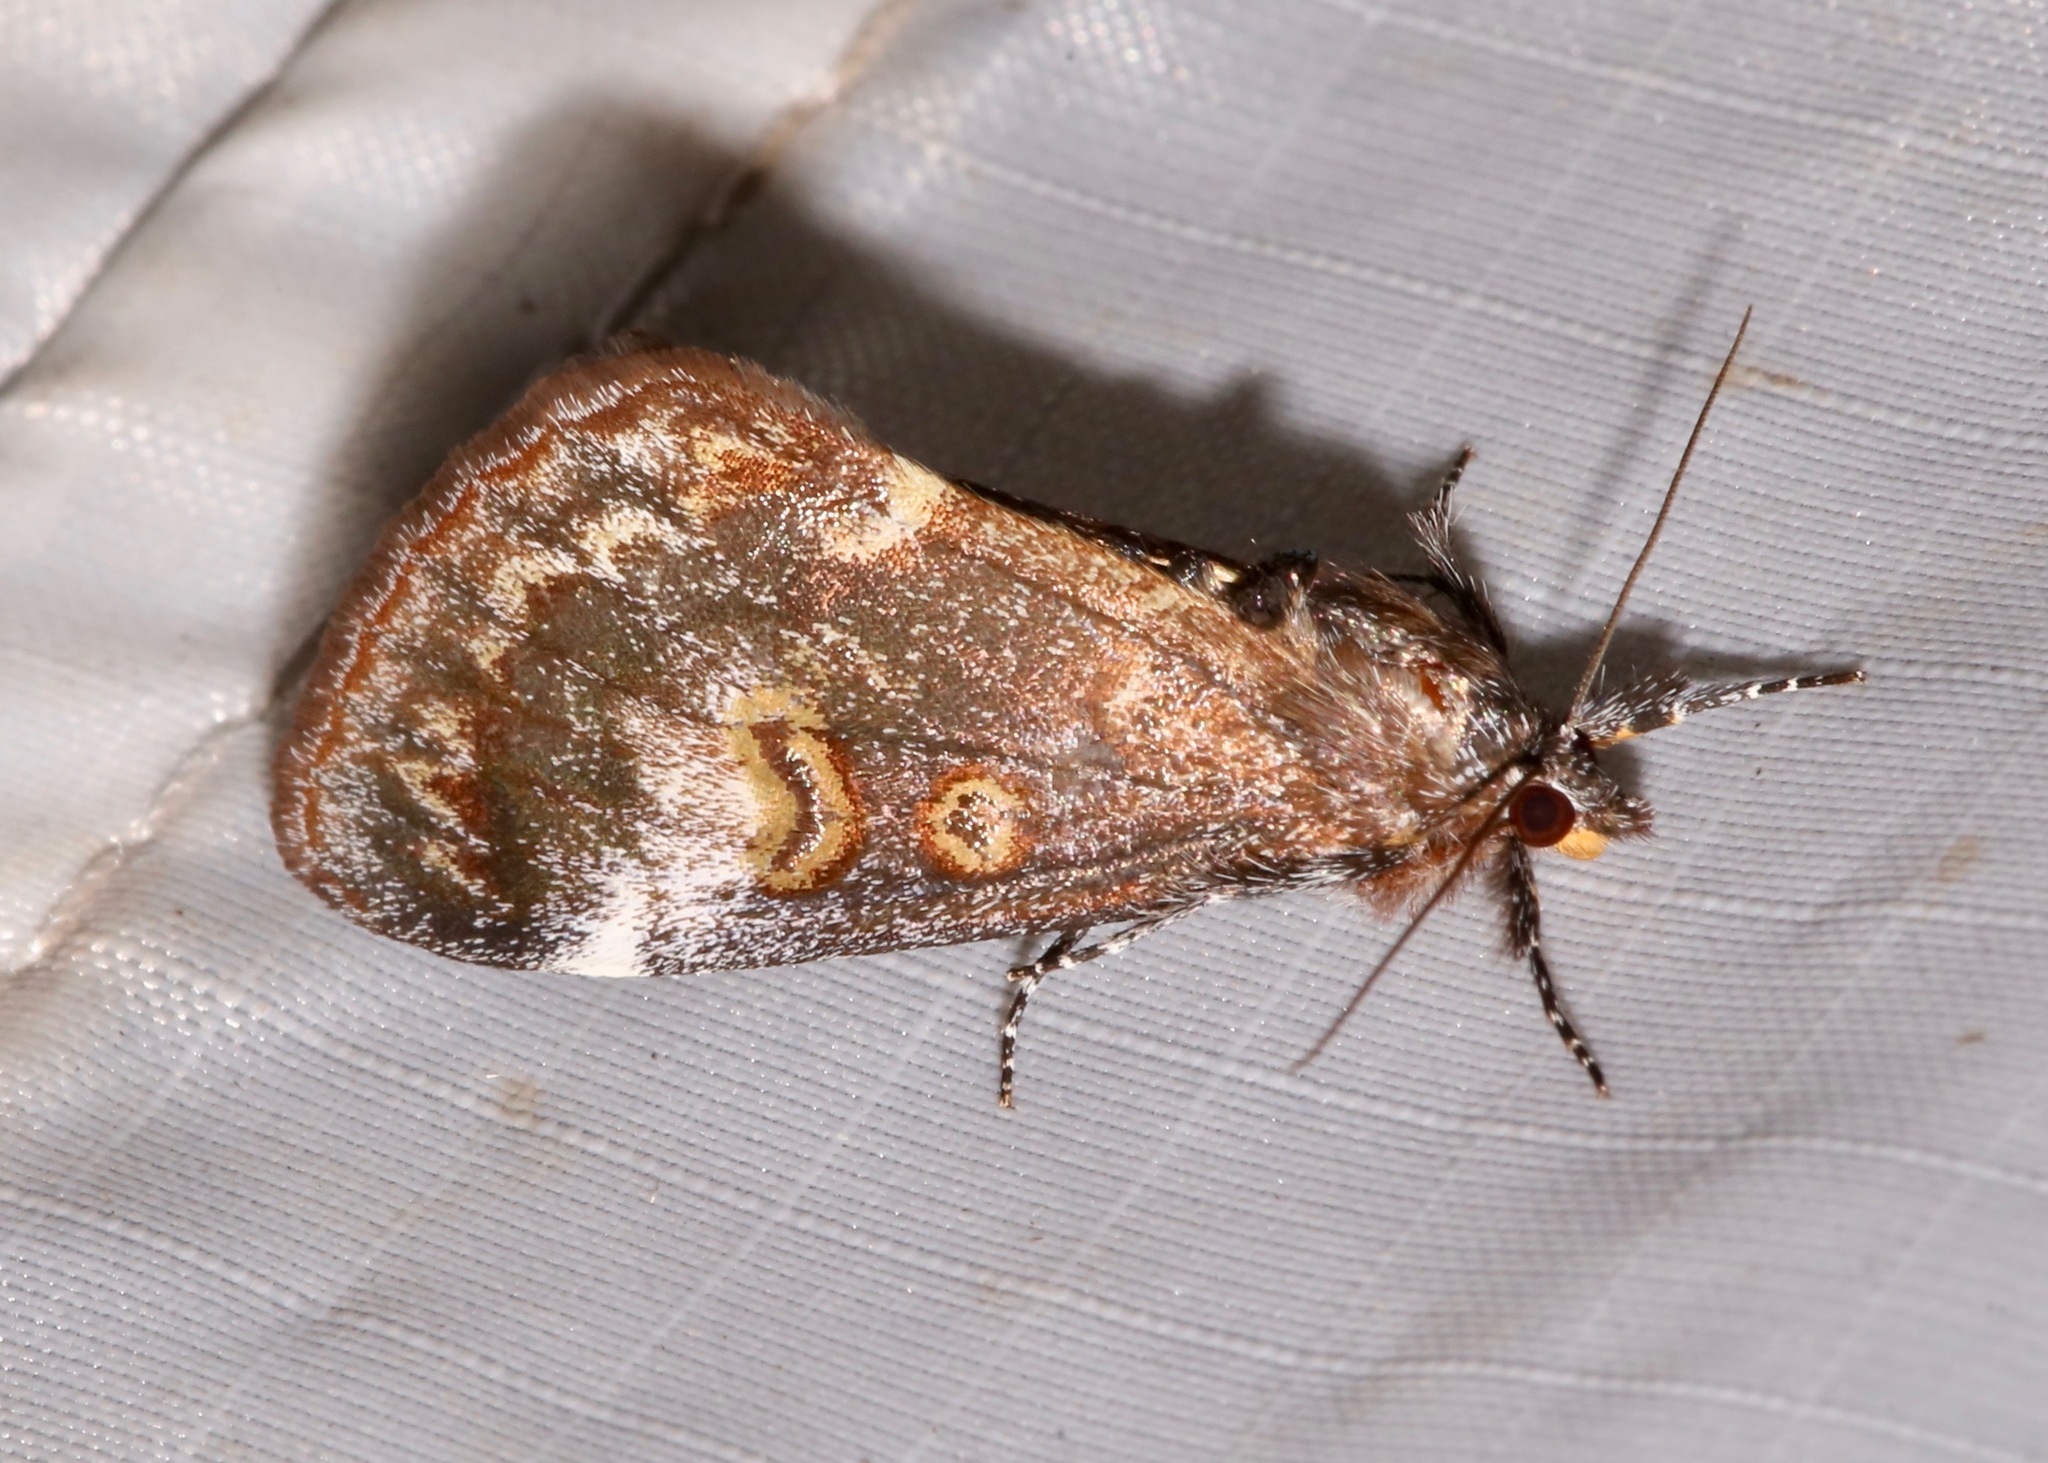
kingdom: Animalia
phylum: Arthropoda
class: Insecta
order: Lepidoptera
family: Noctuidae
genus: Gerra
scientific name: Gerra sevorsa
